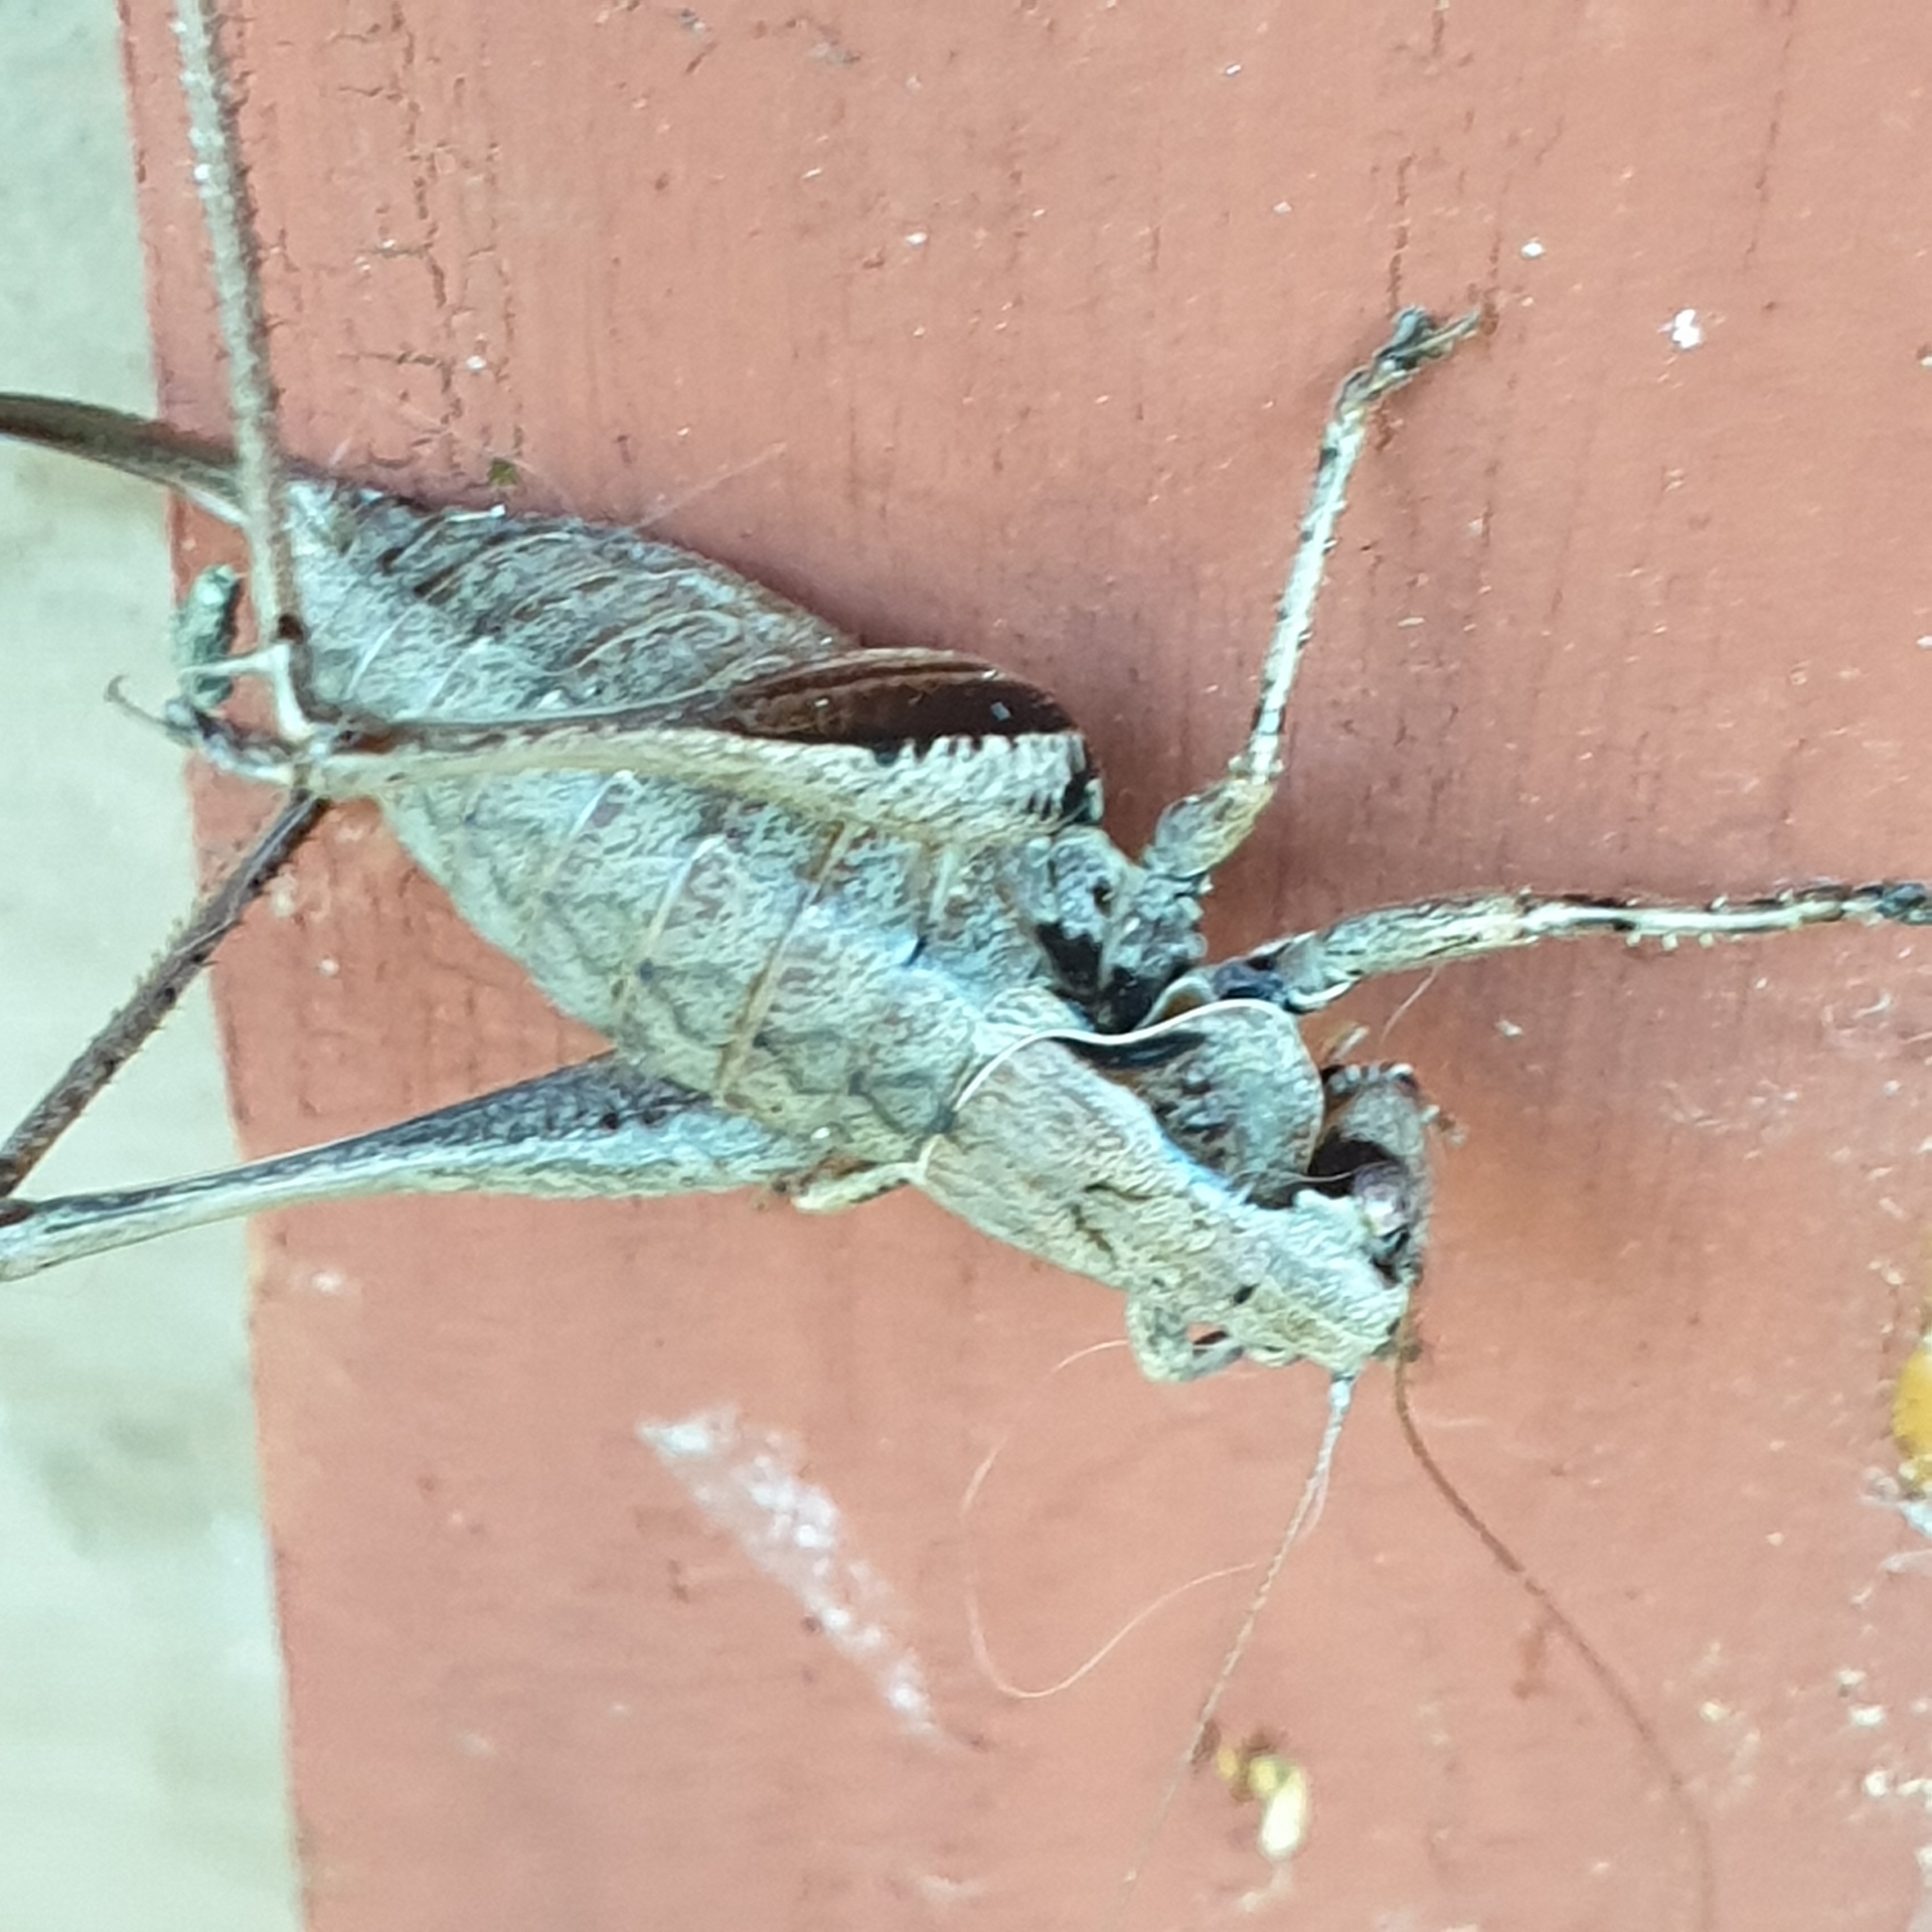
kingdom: Animalia
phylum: Arthropoda
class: Insecta
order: Orthoptera
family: Tettigoniidae
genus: Pholidoptera
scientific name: Pholidoptera griseoaptera
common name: Dark bush-cricket
